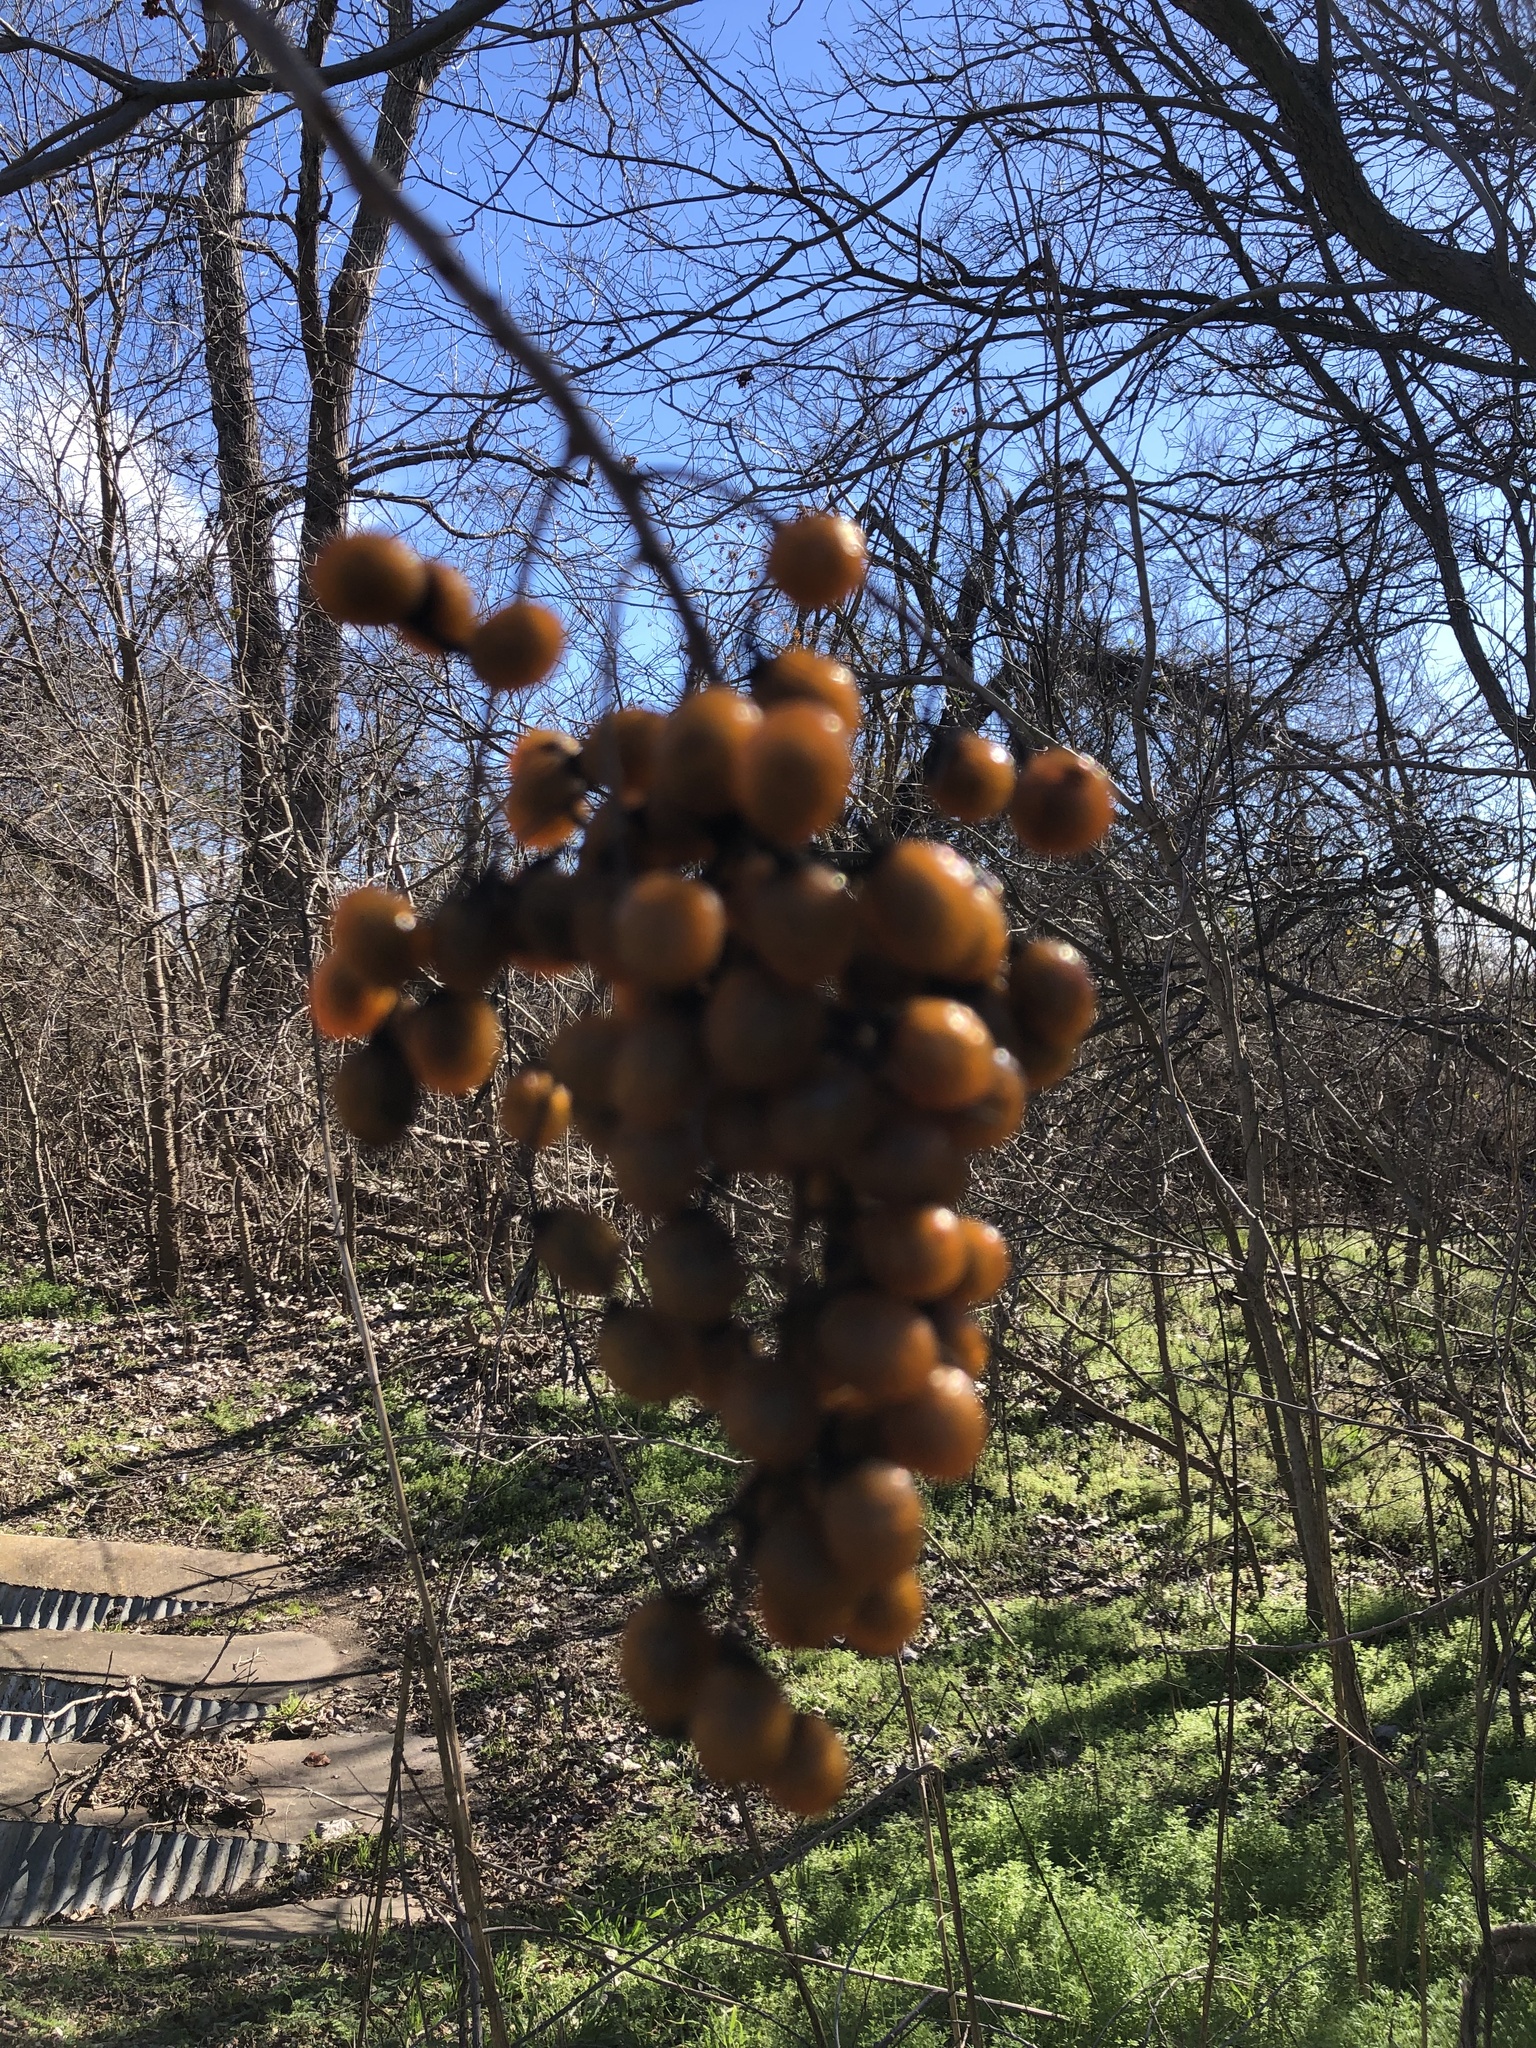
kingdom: Plantae
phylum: Tracheophyta
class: Magnoliopsida
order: Sapindales
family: Sapindaceae
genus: Sapindus
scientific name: Sapindus drummondii
